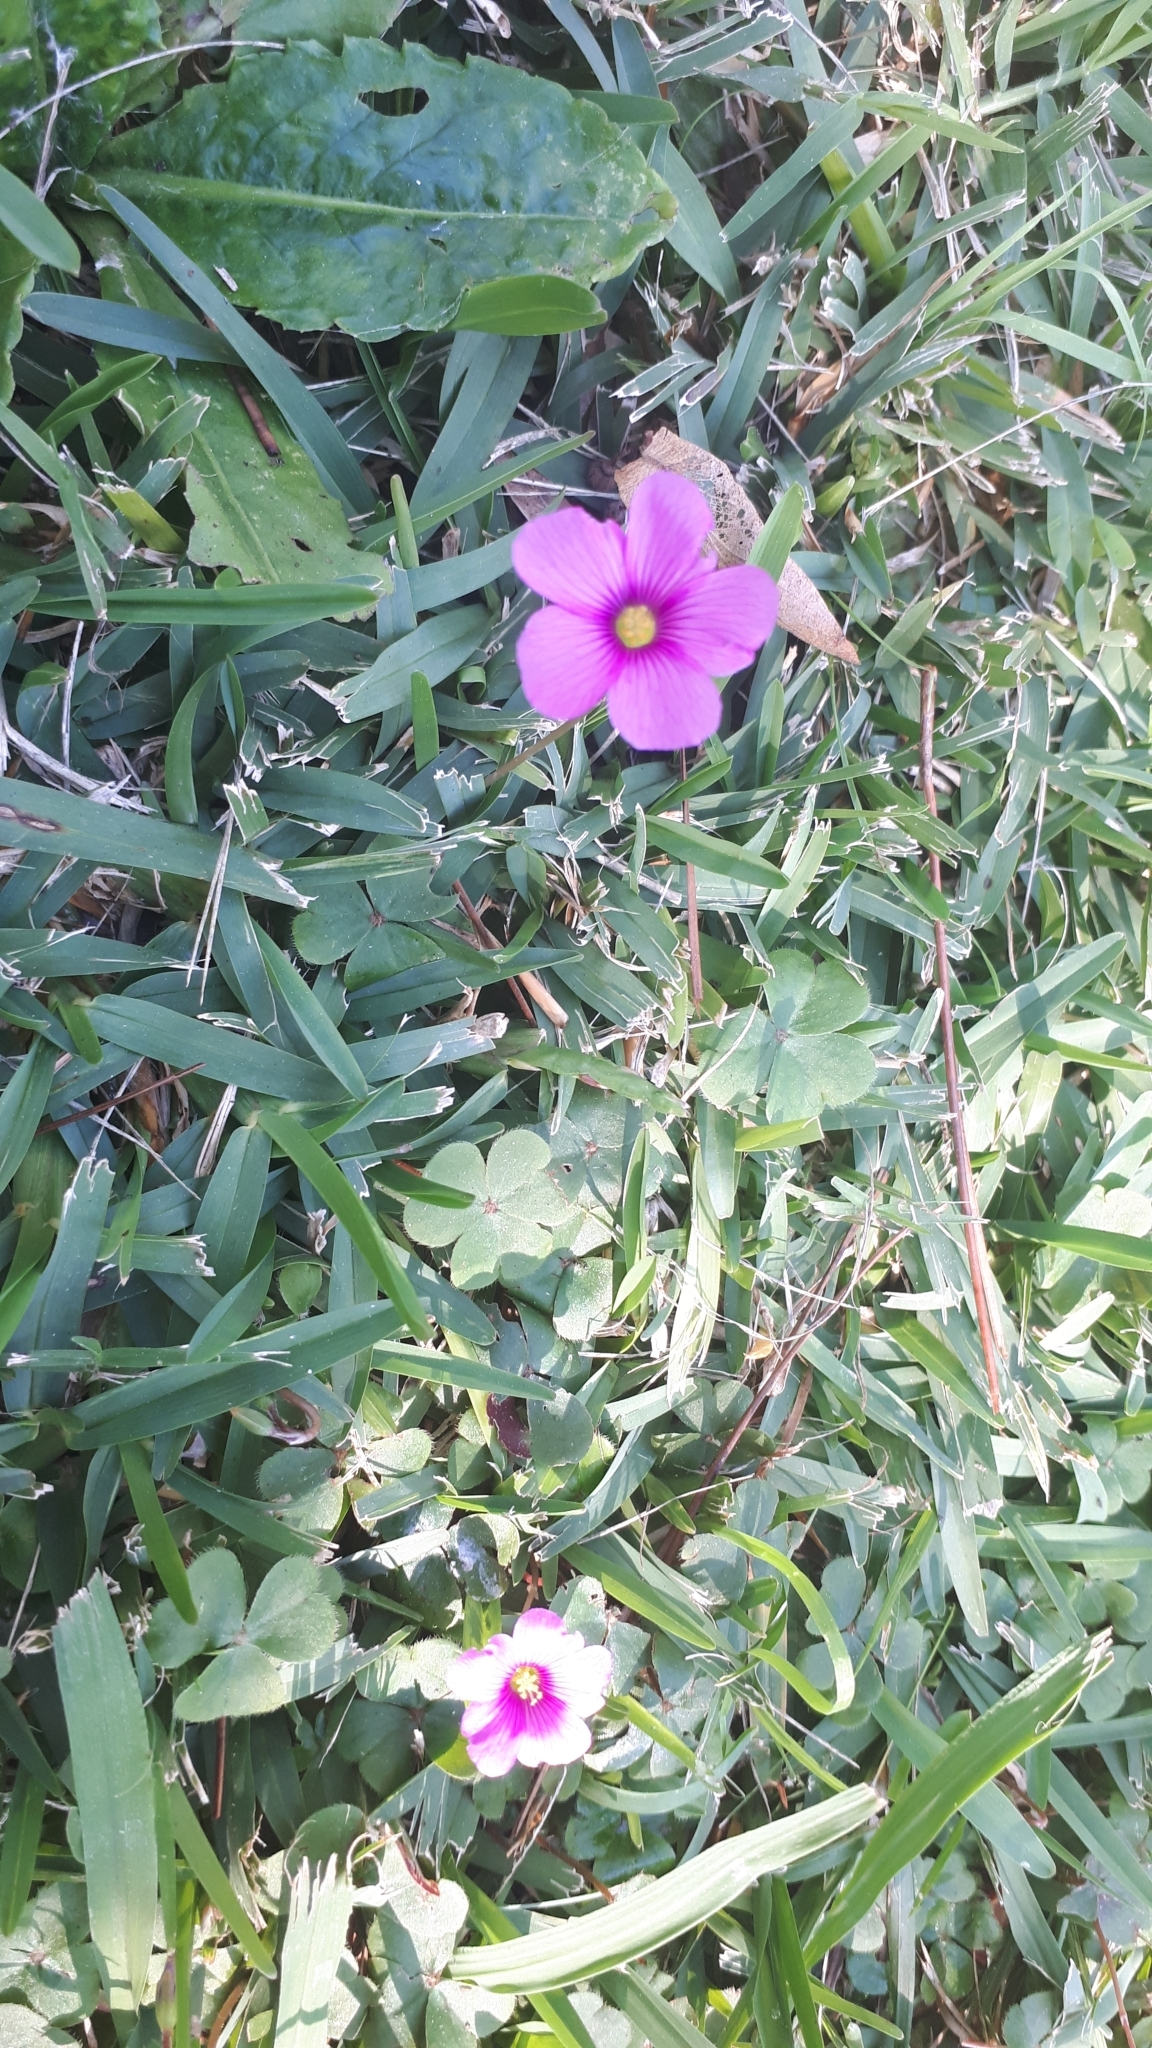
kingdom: Plantae
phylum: Tracheophyta
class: Magnoliopsida
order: Oxalidales
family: Oxalidaceae
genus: Oxalis
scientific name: Oxalis articulata
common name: Pink-sorrel
